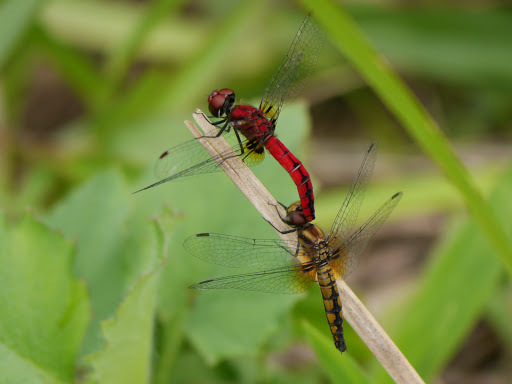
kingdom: Animalia
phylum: Arthropoda
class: Insecta
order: Odonata
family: Libellulidae
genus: Aethriamanta
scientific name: Aethriamanta rezia
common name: Pygmy basker
